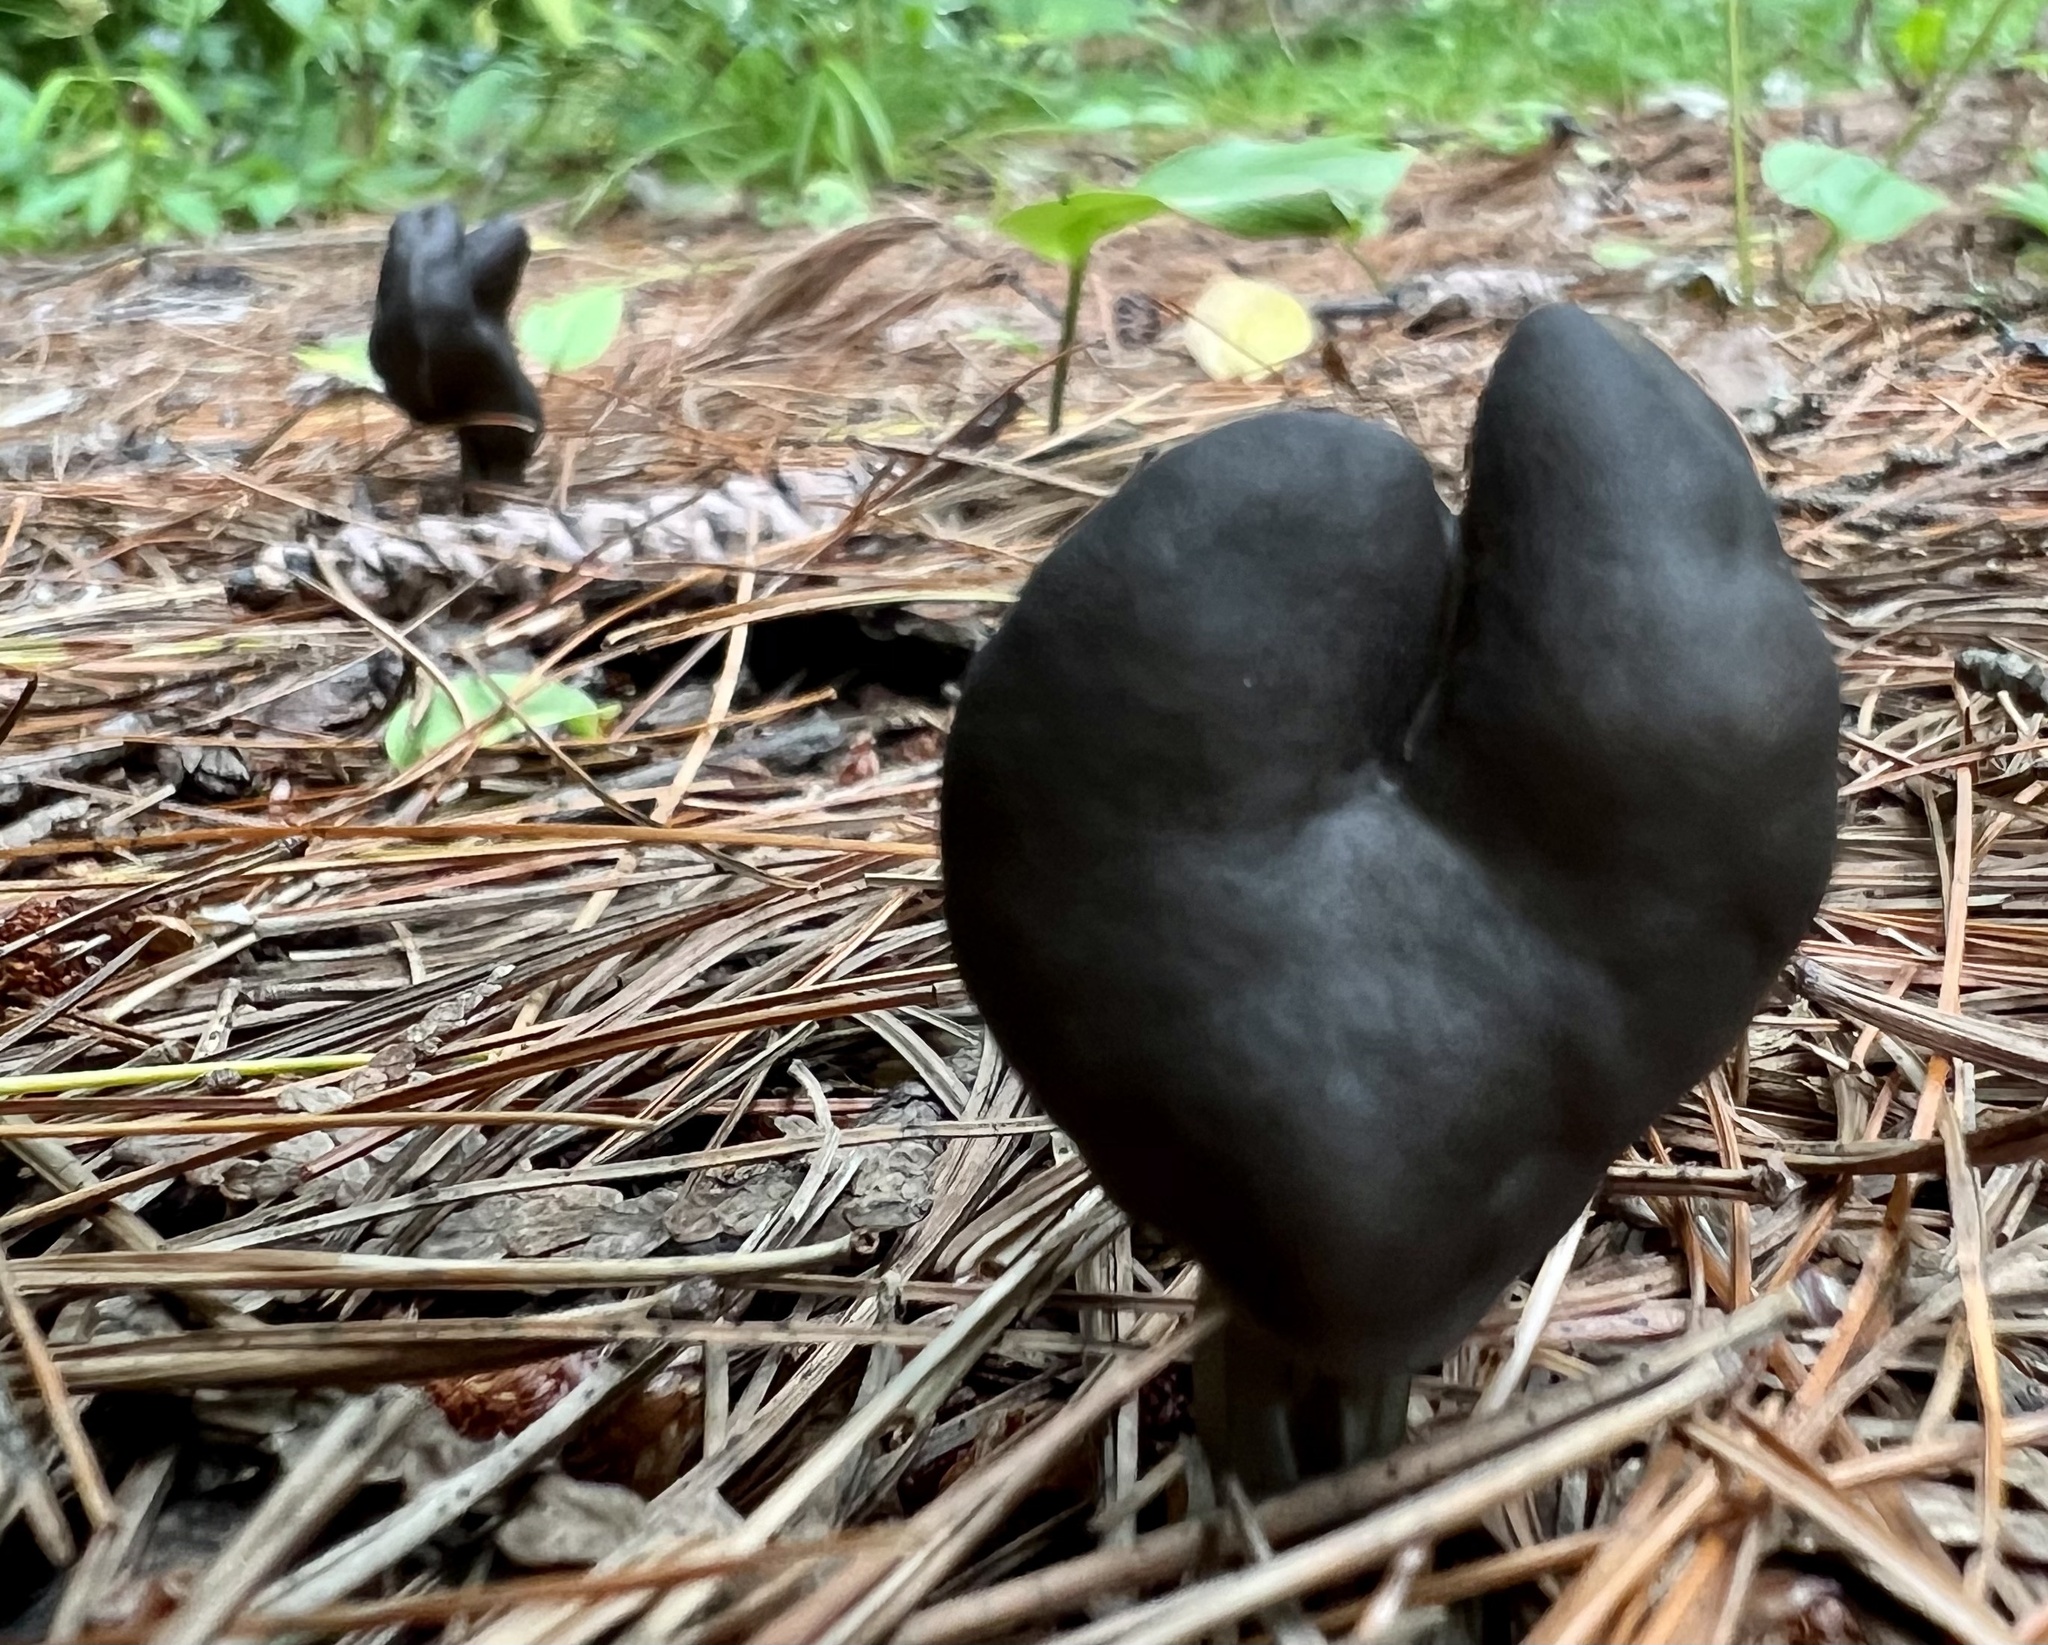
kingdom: Fungi
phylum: Ascomycota
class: Pezizomycetes
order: Pezizales
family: Helvellaceae
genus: Helvella
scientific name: Helvella lacunosa
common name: Elfin saddle
